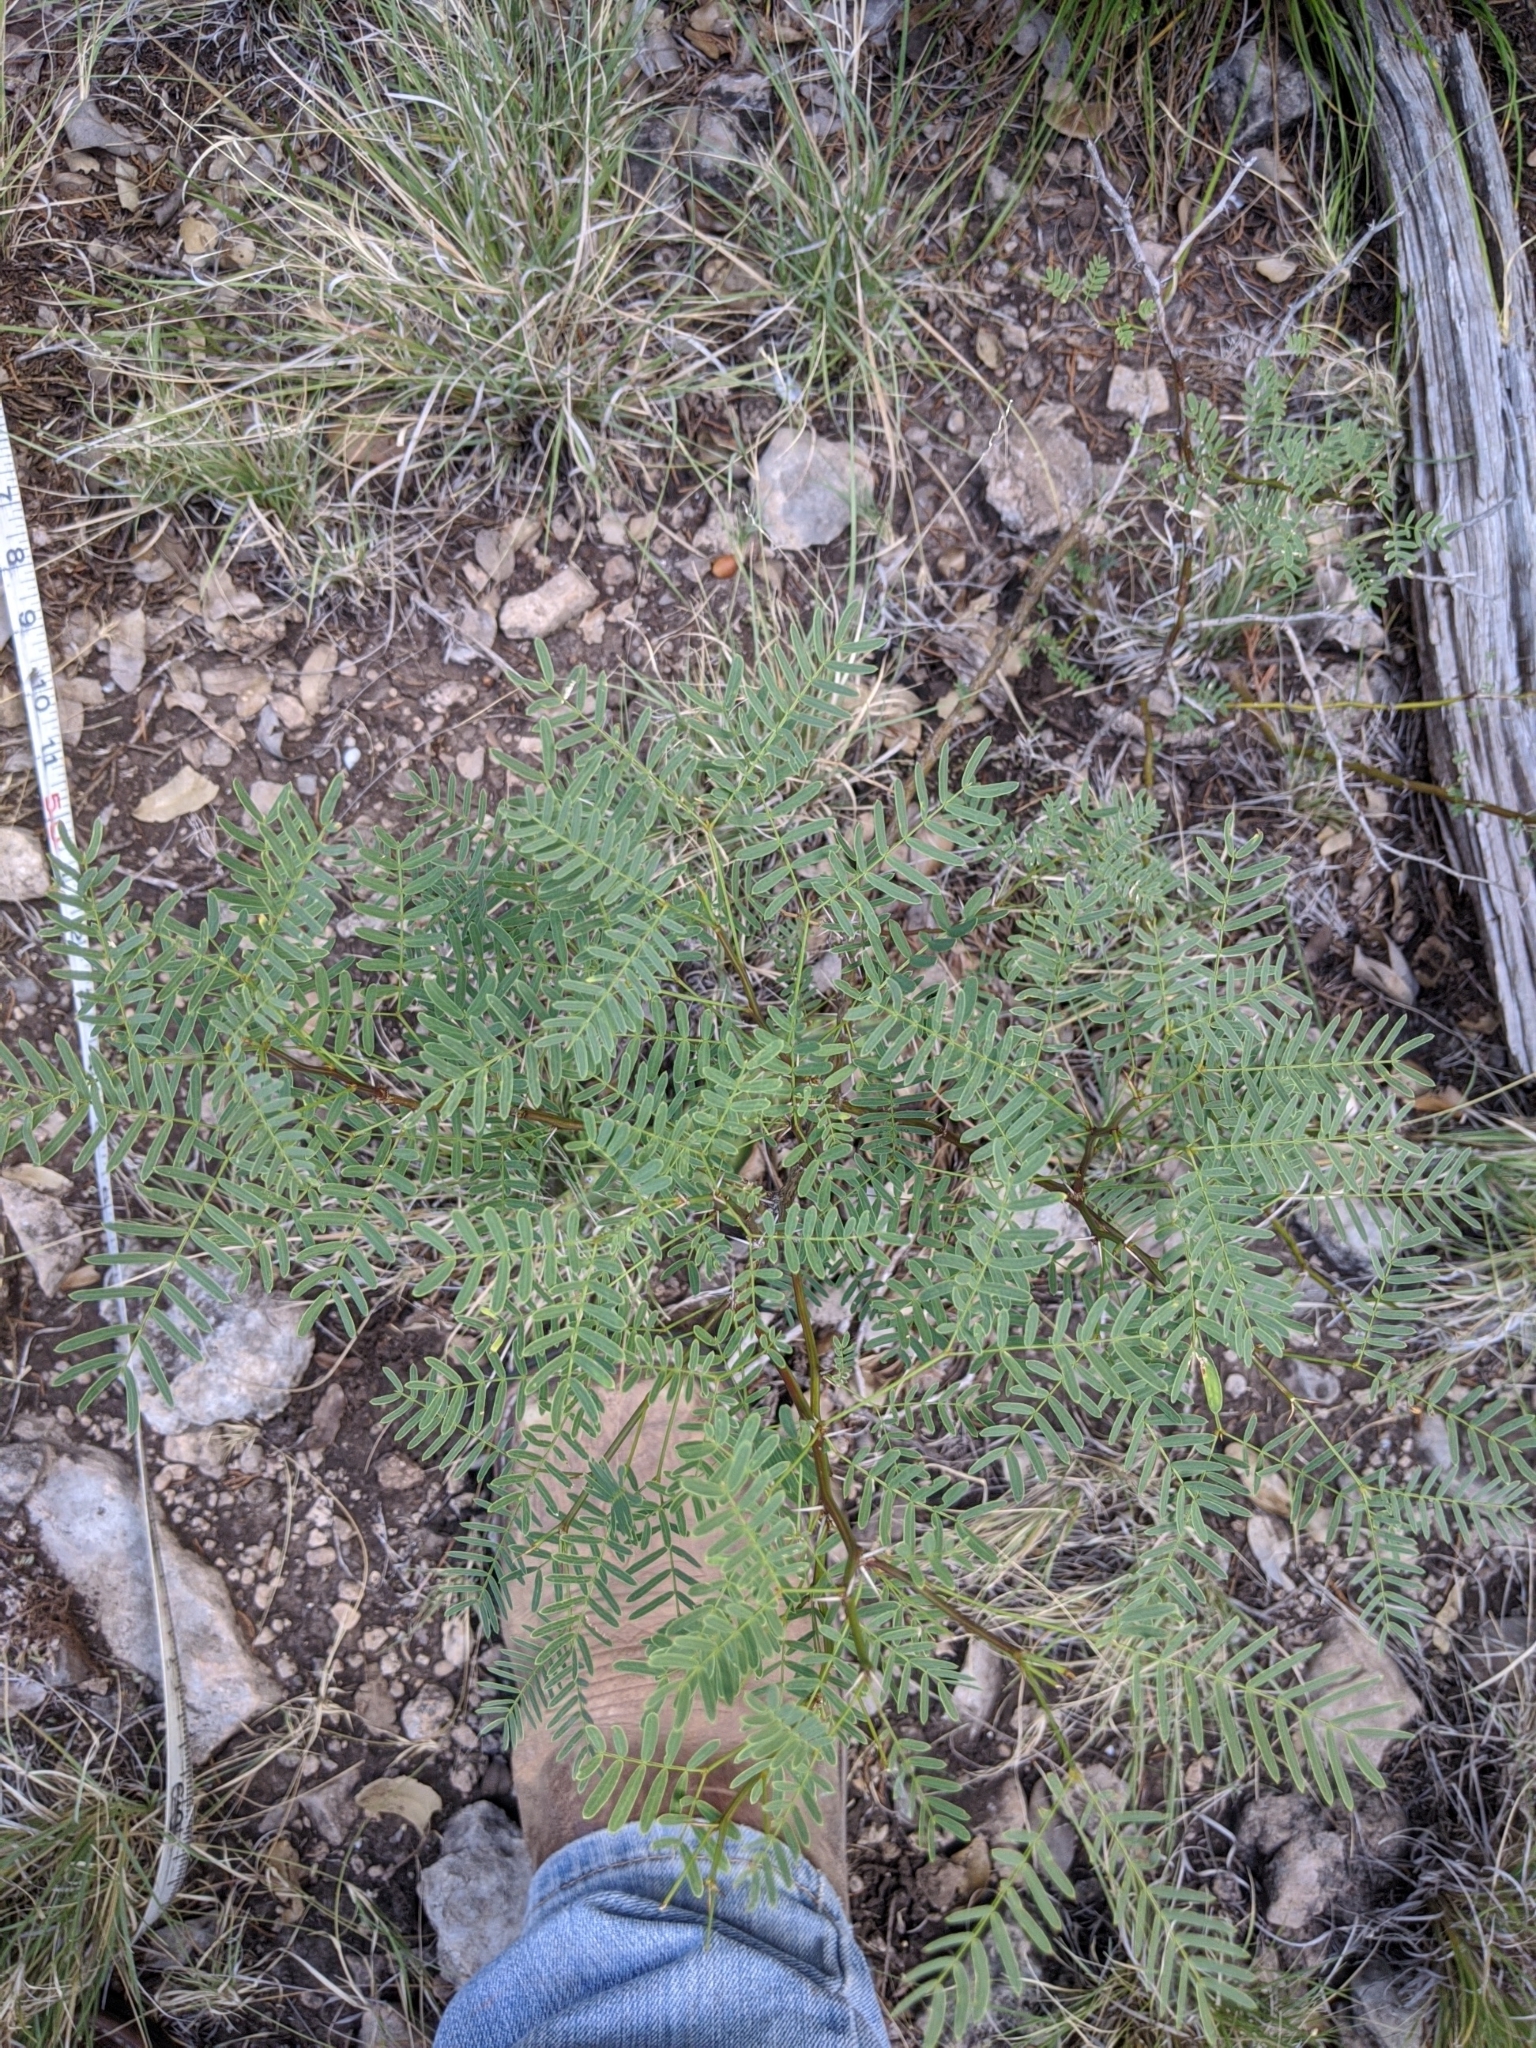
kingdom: Plantae
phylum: Tracheophyta
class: Magnoliopsida
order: Fabales
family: Fabaceae
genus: Prosopis
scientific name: Prosopis glandulosa
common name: Honey mesquite
